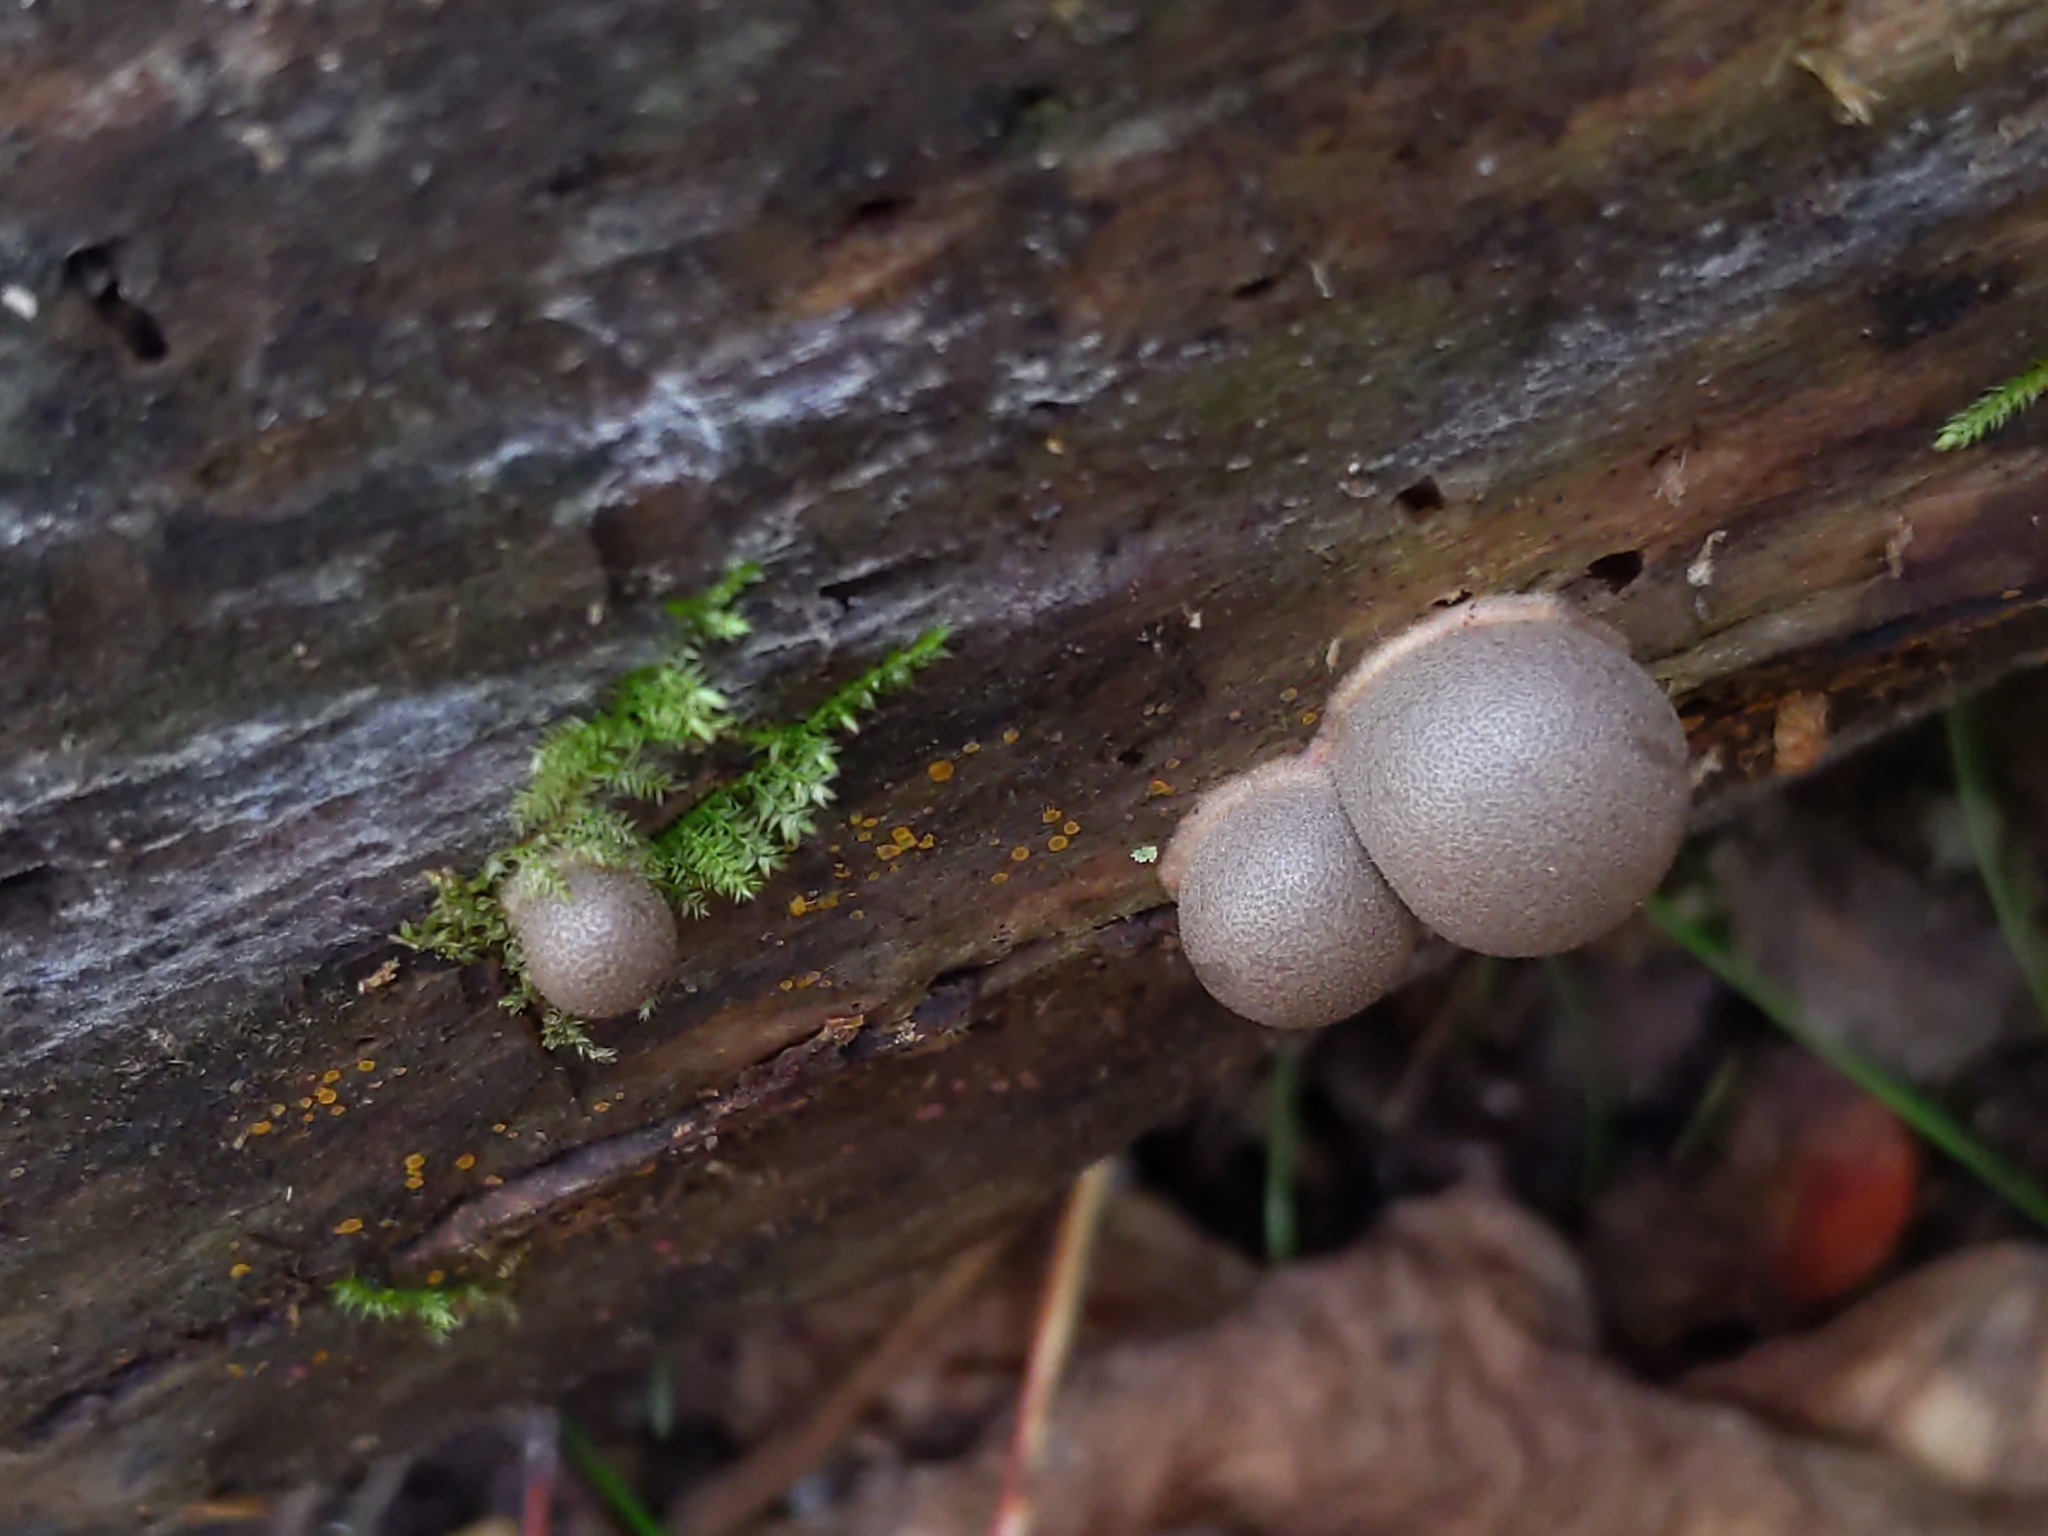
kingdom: Protozoa
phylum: Mycetozoa
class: Myxomycetes
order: Cribrariales
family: Tubiferaceae
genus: Lycogala
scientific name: Lycogala epidendrum
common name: Wolf's milk
